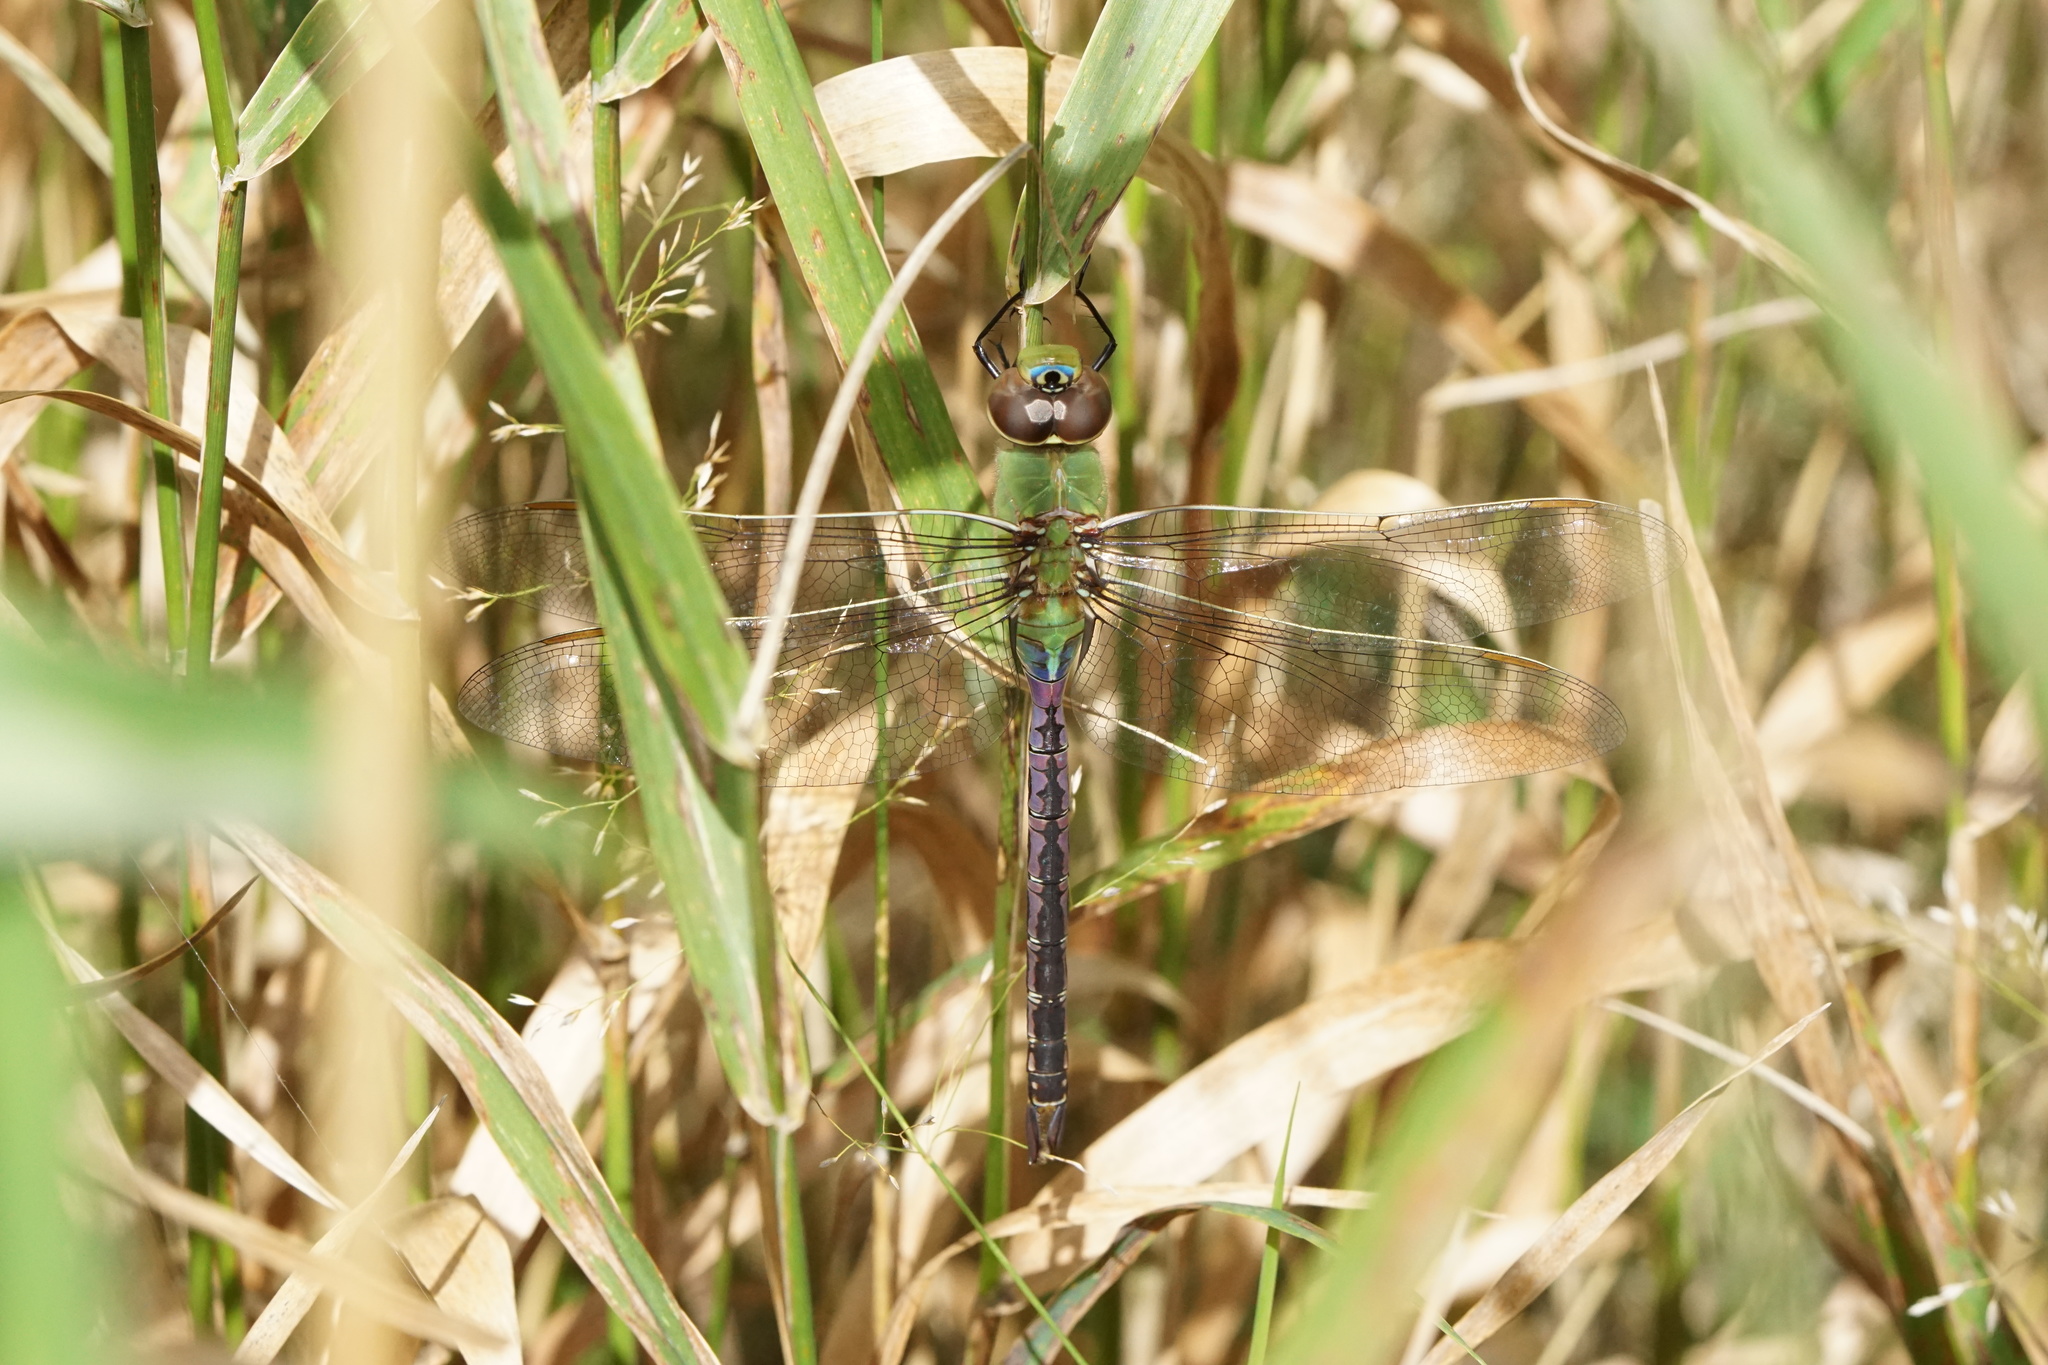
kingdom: Animalia
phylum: Arthropoda
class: Insecta
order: Odonata
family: Aeshnidae
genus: Anax
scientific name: Anax junius
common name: Common green darner
